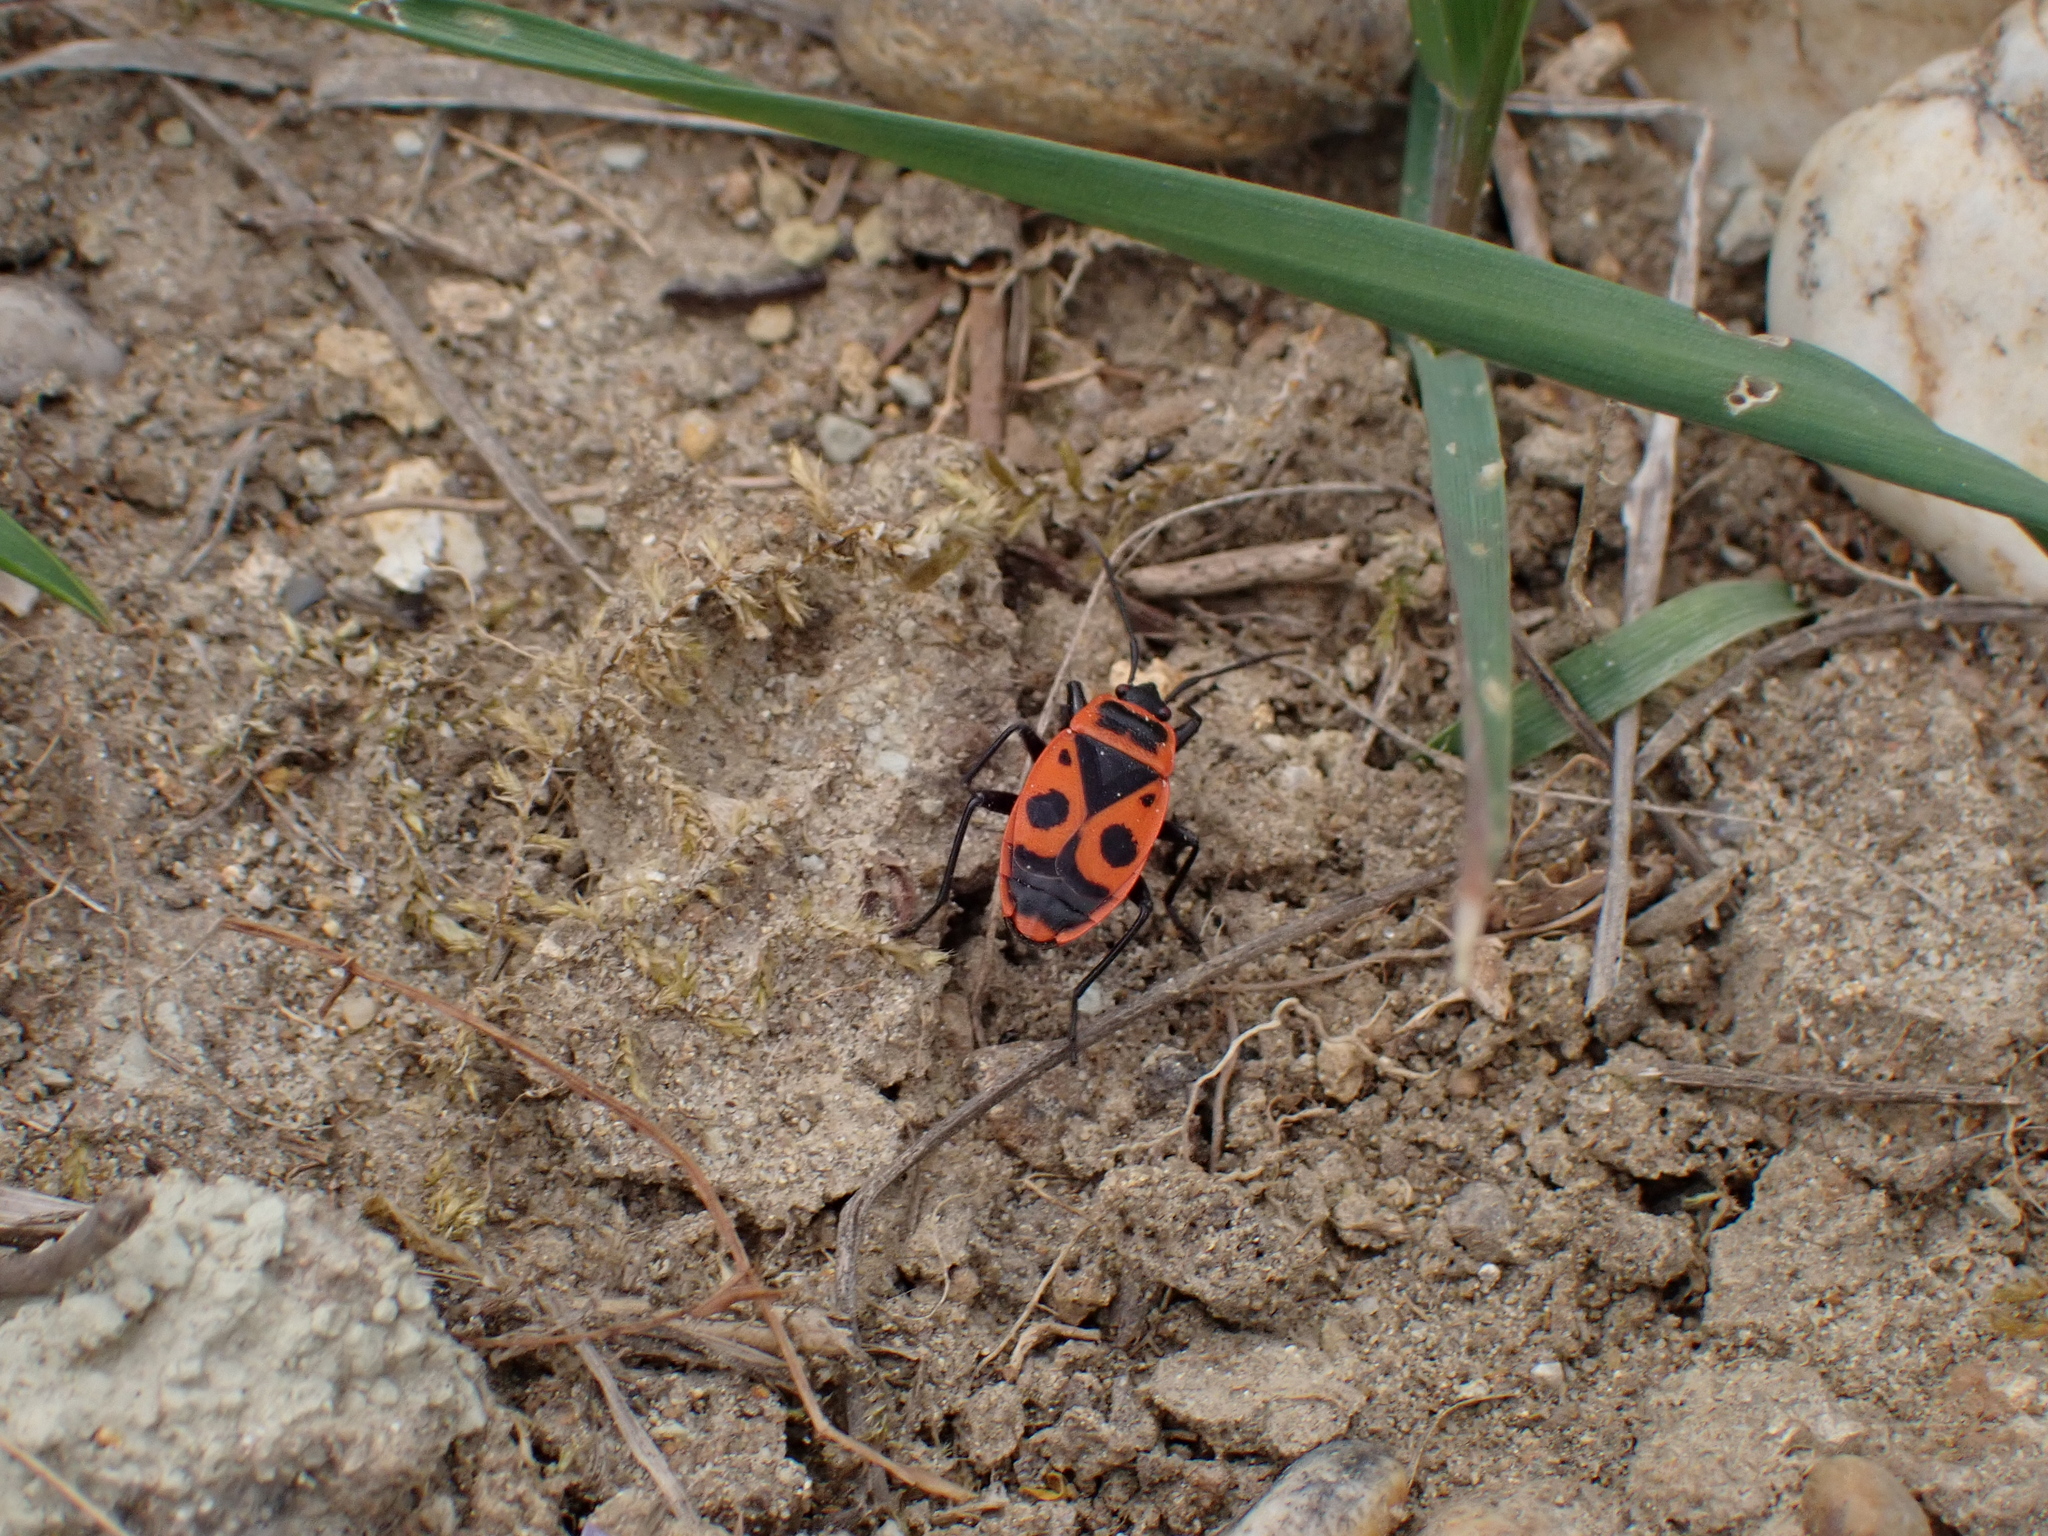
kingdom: Animalia
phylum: Arthropoda
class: Insecta
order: Hemiptera
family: Pyrrhocoridae
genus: Pyrrhocoris
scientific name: Pyrrhocoris apterus
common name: Firebug
